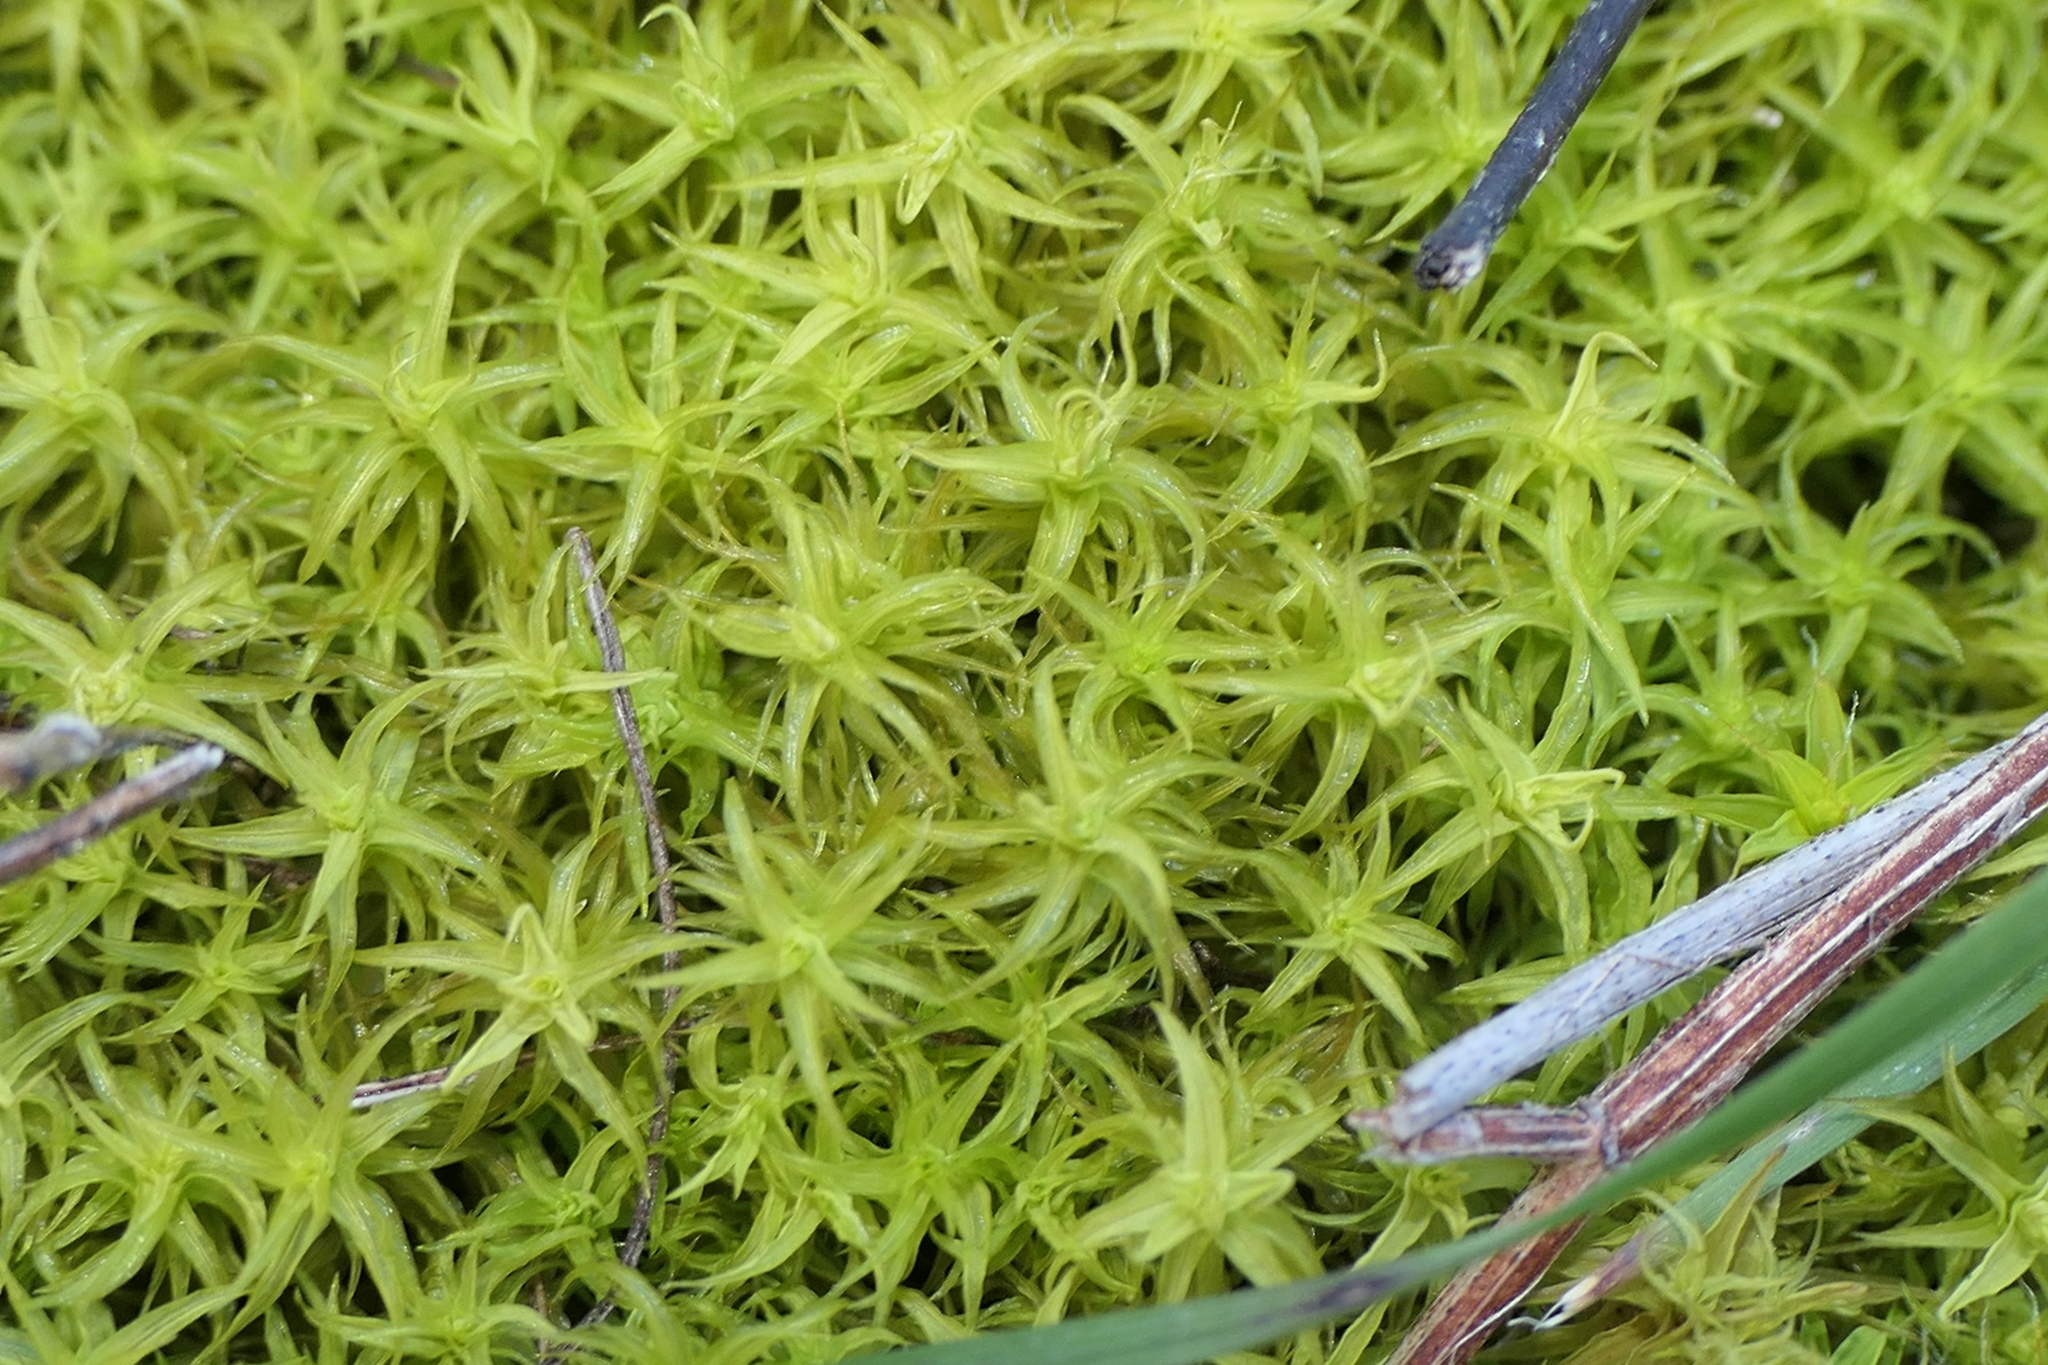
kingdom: Plantae
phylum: Bryophyta
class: Bryopsida
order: Pottiales
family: Pottiaceae
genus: Pleurochaete
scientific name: Pleurochaete squarrosa
